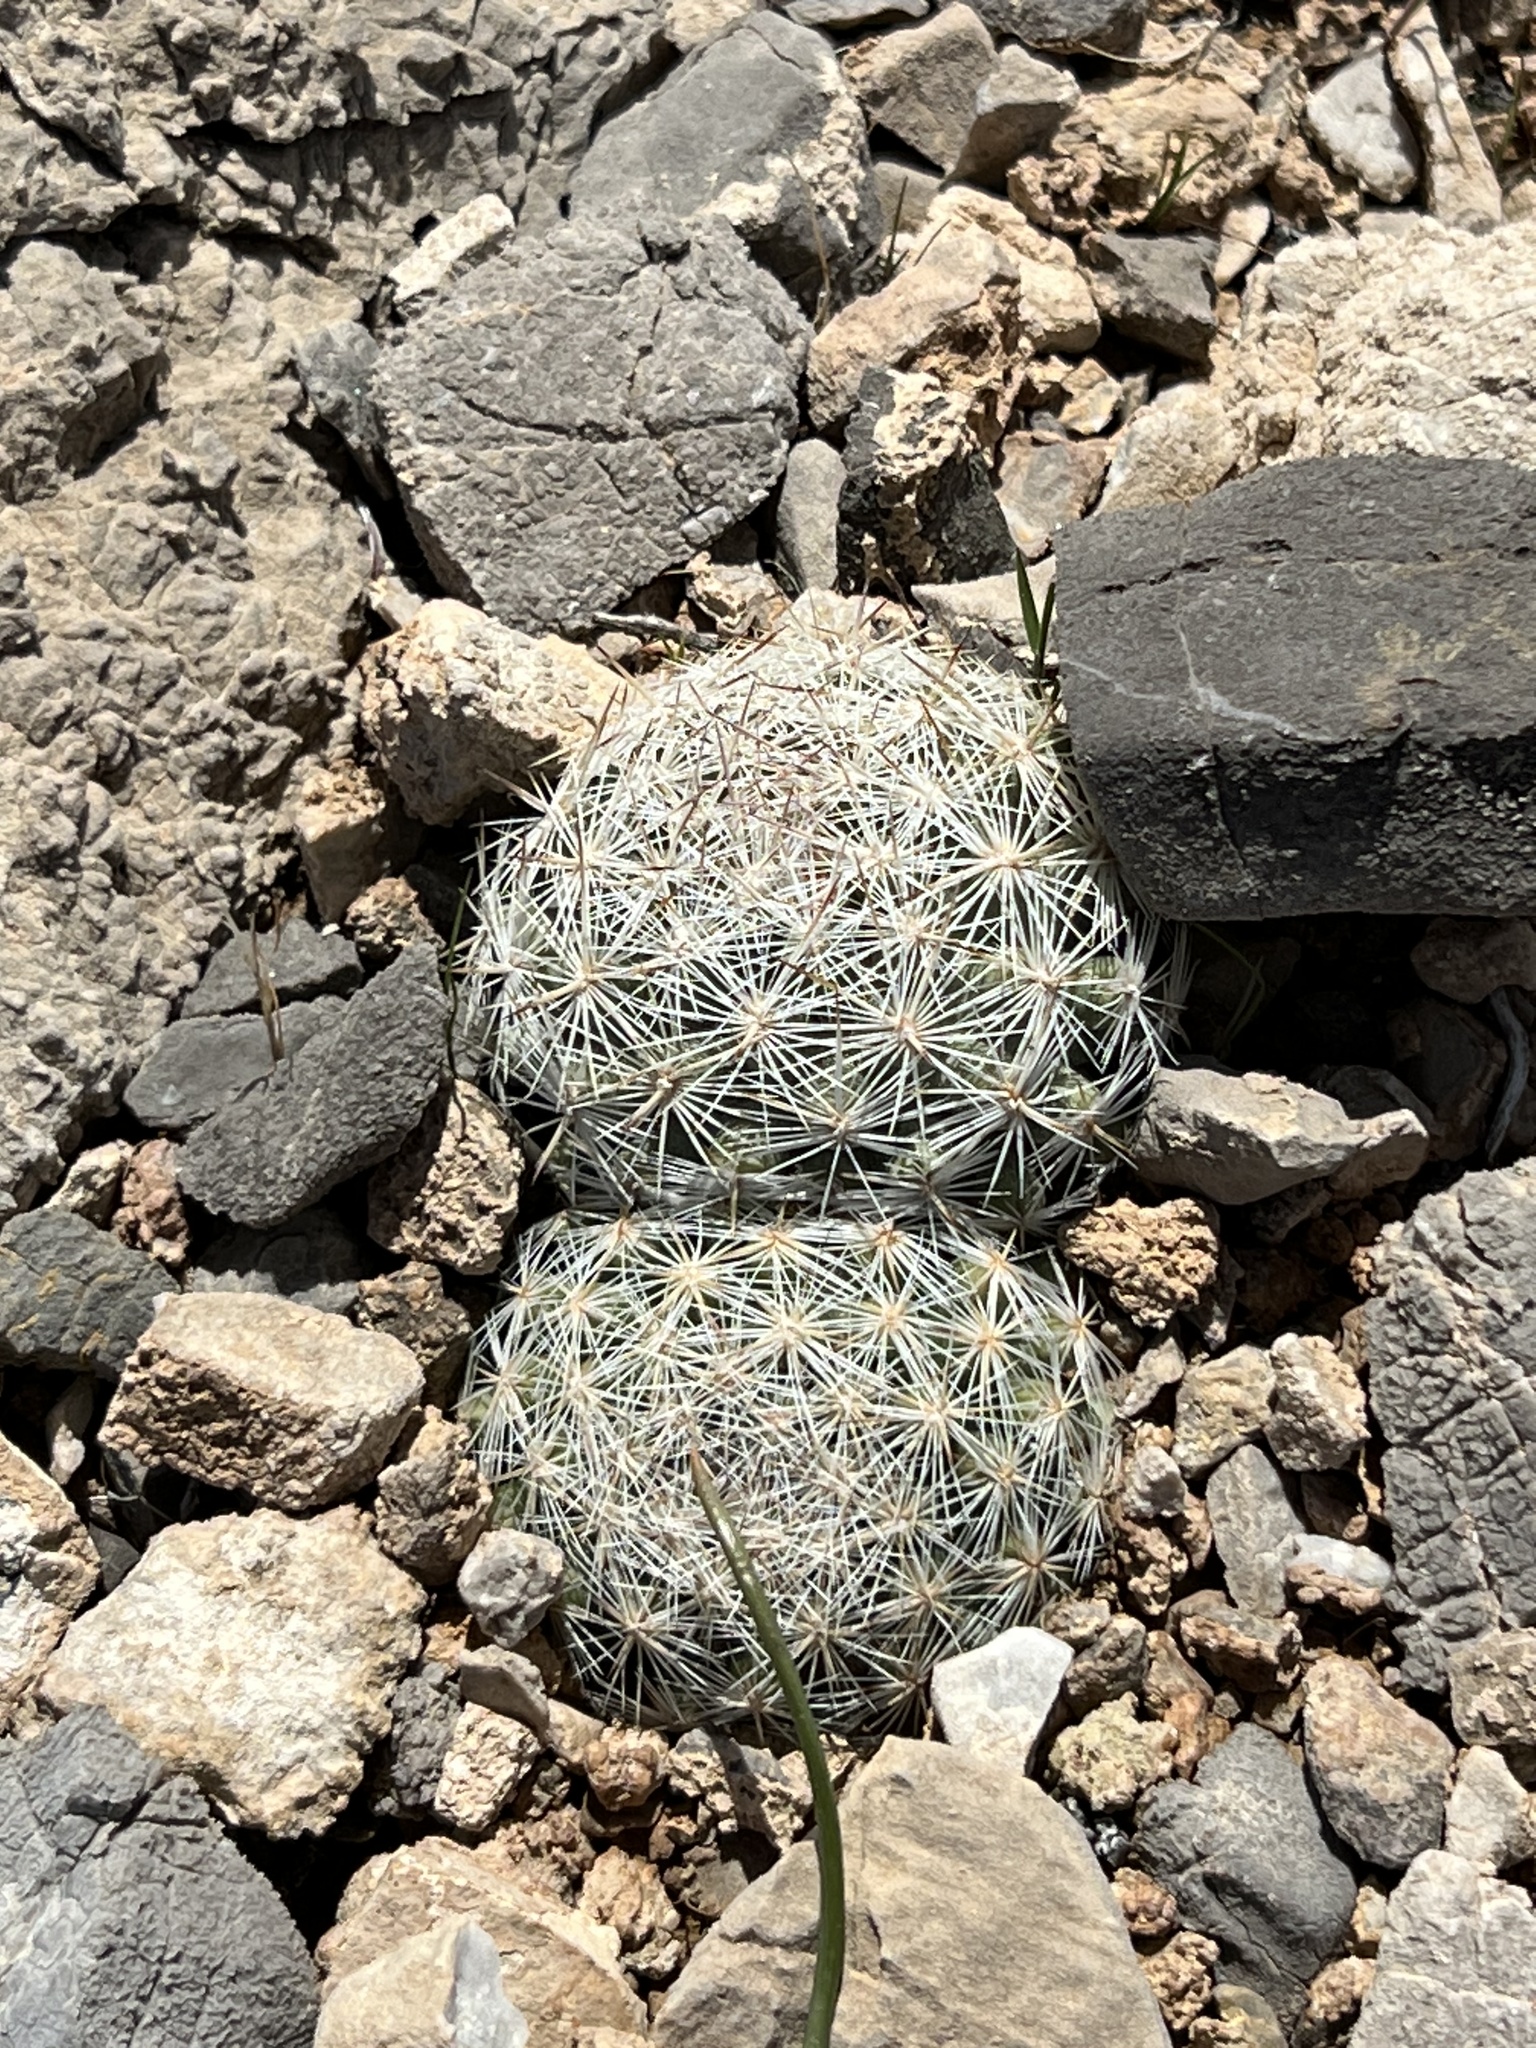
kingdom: Plantae
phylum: Tracheophyta
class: Magnoliopsida
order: Caryophyllales
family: Cactaceae
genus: Pelecyphora
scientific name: Pelecyphora dasyacantha
